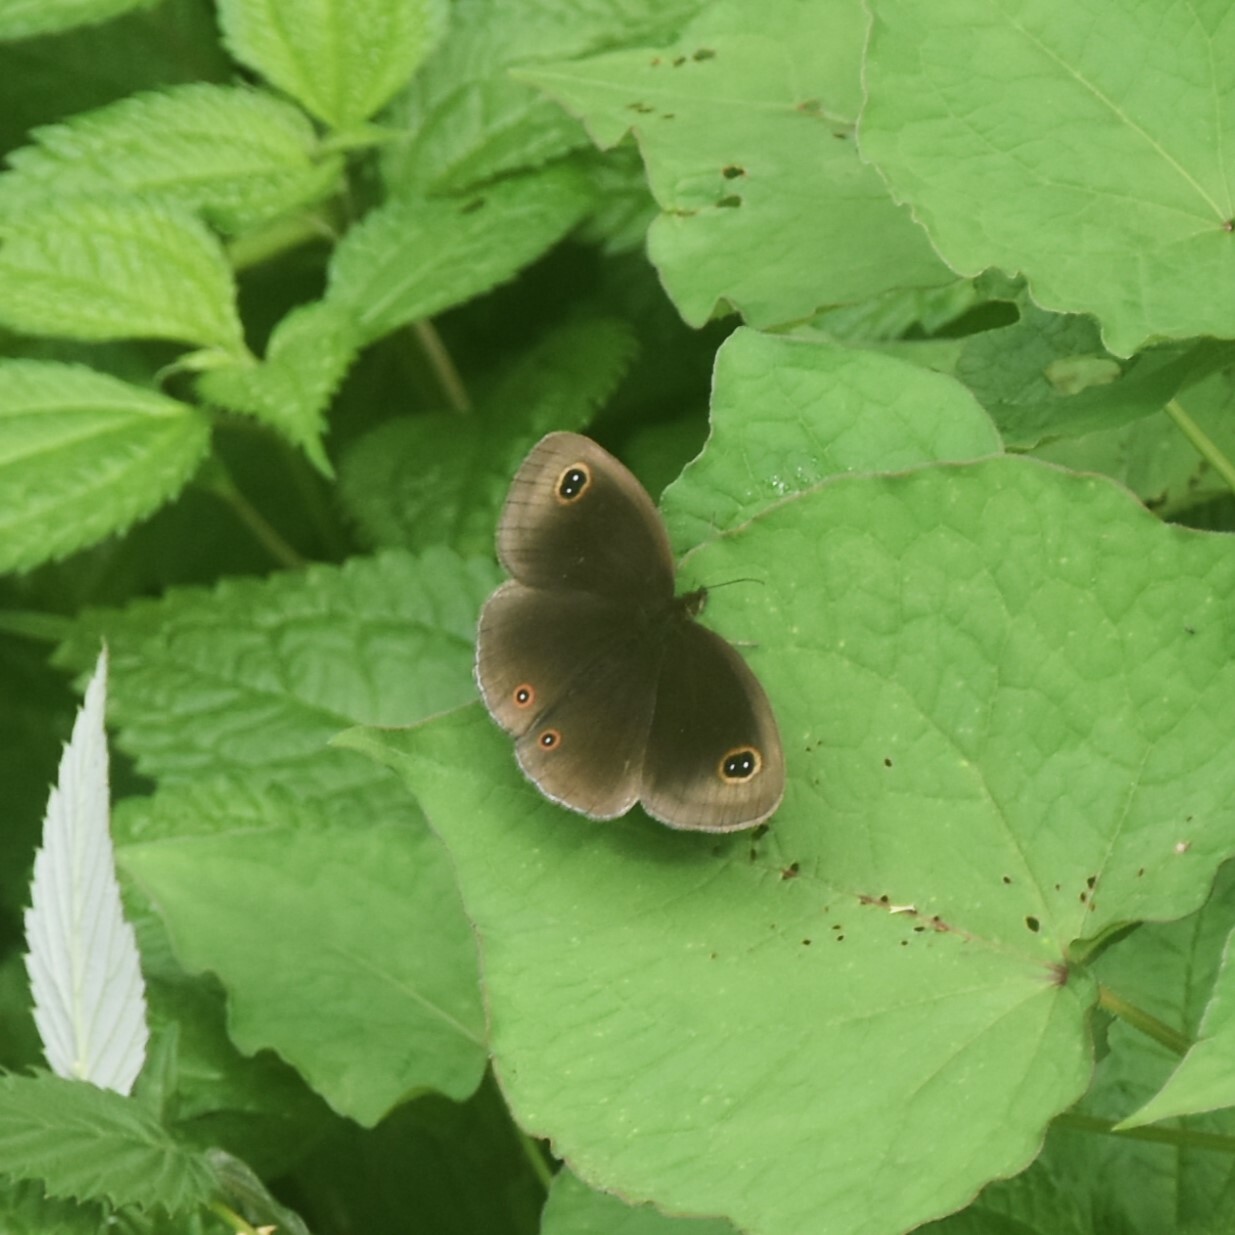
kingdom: Animalia
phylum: Arthropoda
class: Insecta
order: Lepidoptera
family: Nymphalidae
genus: Callerebia
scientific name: Callerebia scanda
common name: Pallid argus
